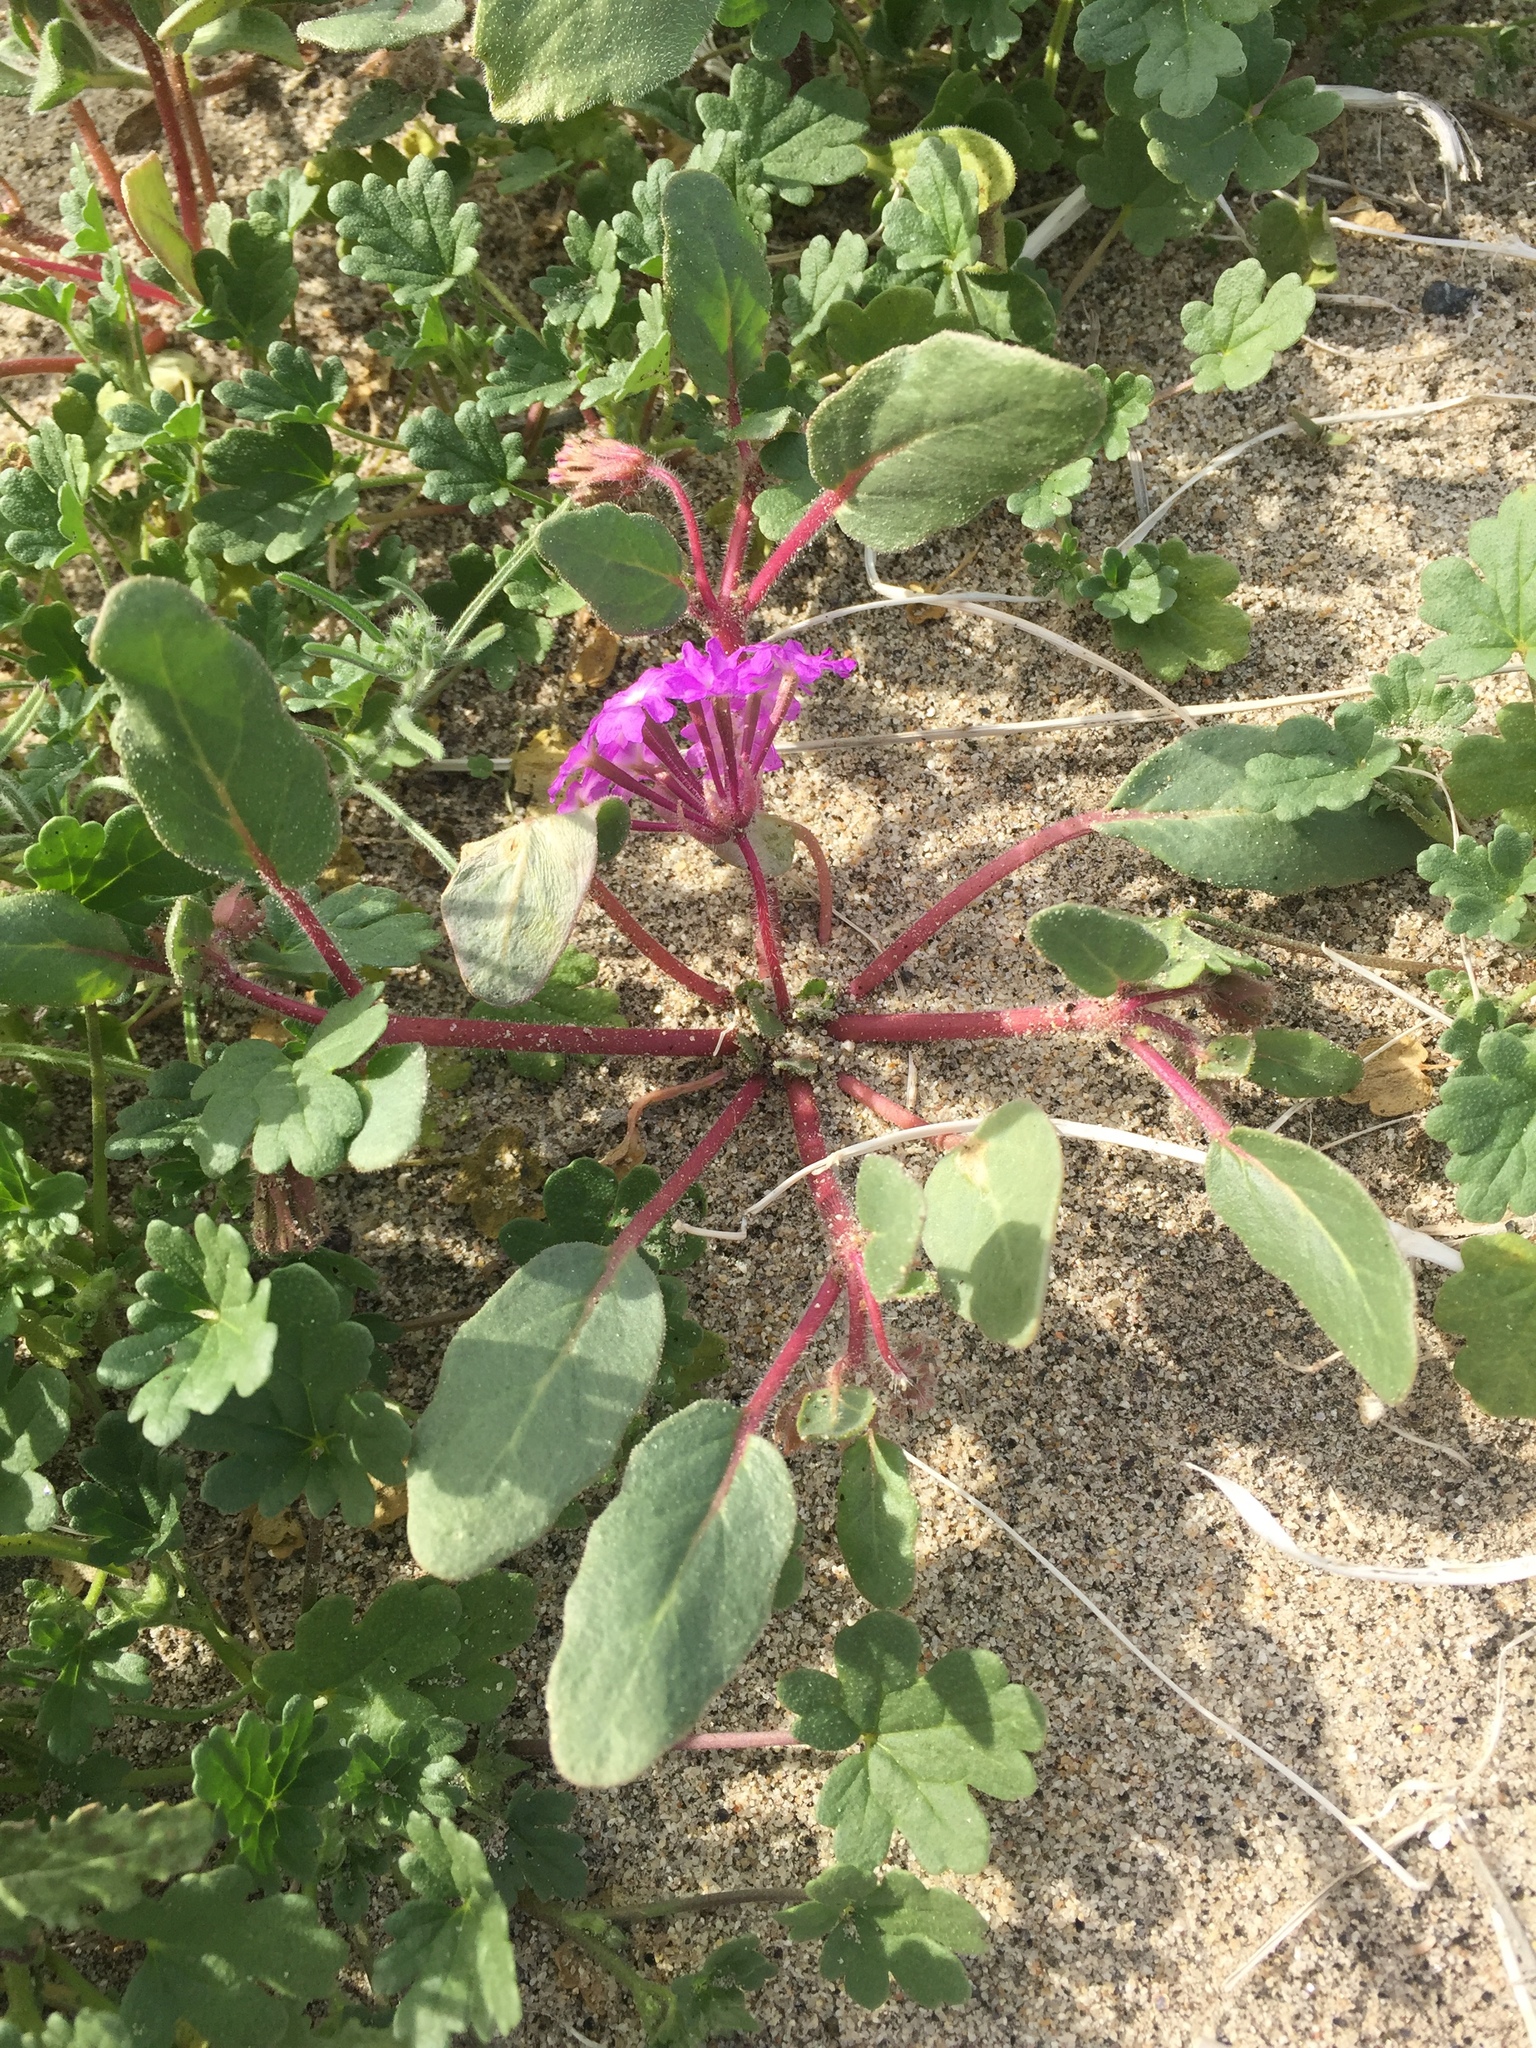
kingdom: Plantae
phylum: Tracheophyta
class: Magnoliopsida
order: Caryophyllales
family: Nyctaginaceae
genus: Abronia
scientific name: Abronia villosa
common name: Desert sand-verbena
